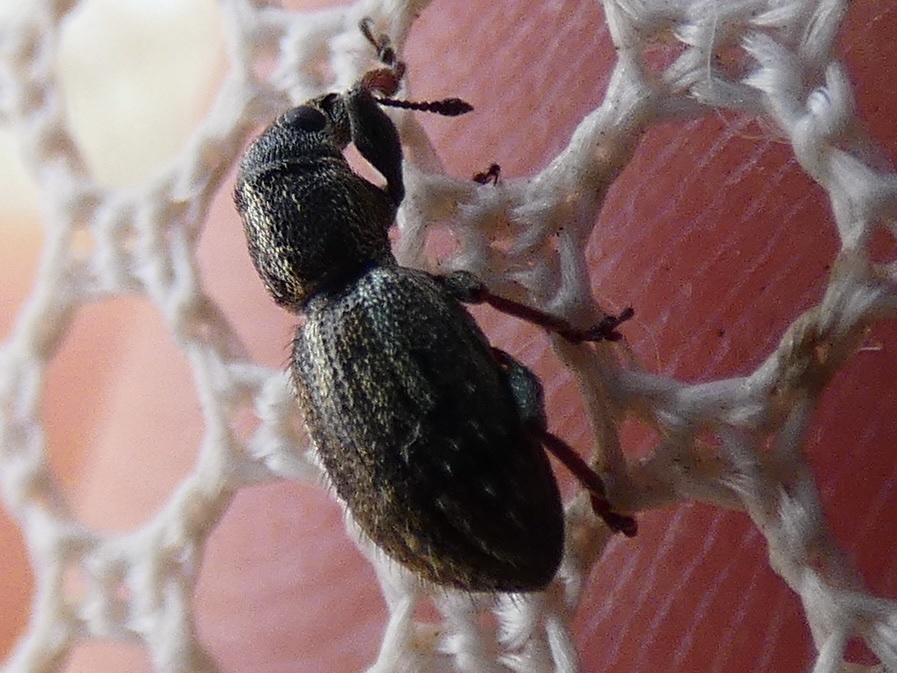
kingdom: Animalia
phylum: Arthropoda
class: Insecta
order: Coleoptera
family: Curculionidae
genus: Andrion
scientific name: Andrion regensteinense
